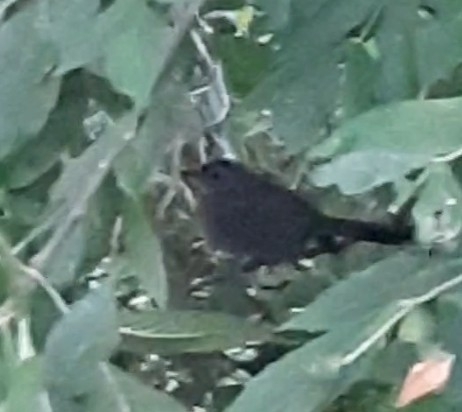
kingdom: Animalia
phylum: Chordata
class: Aves
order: Passeriformes
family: Mimidae
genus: Dumetella
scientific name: Dumetella carolinensis
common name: Gray catbird
